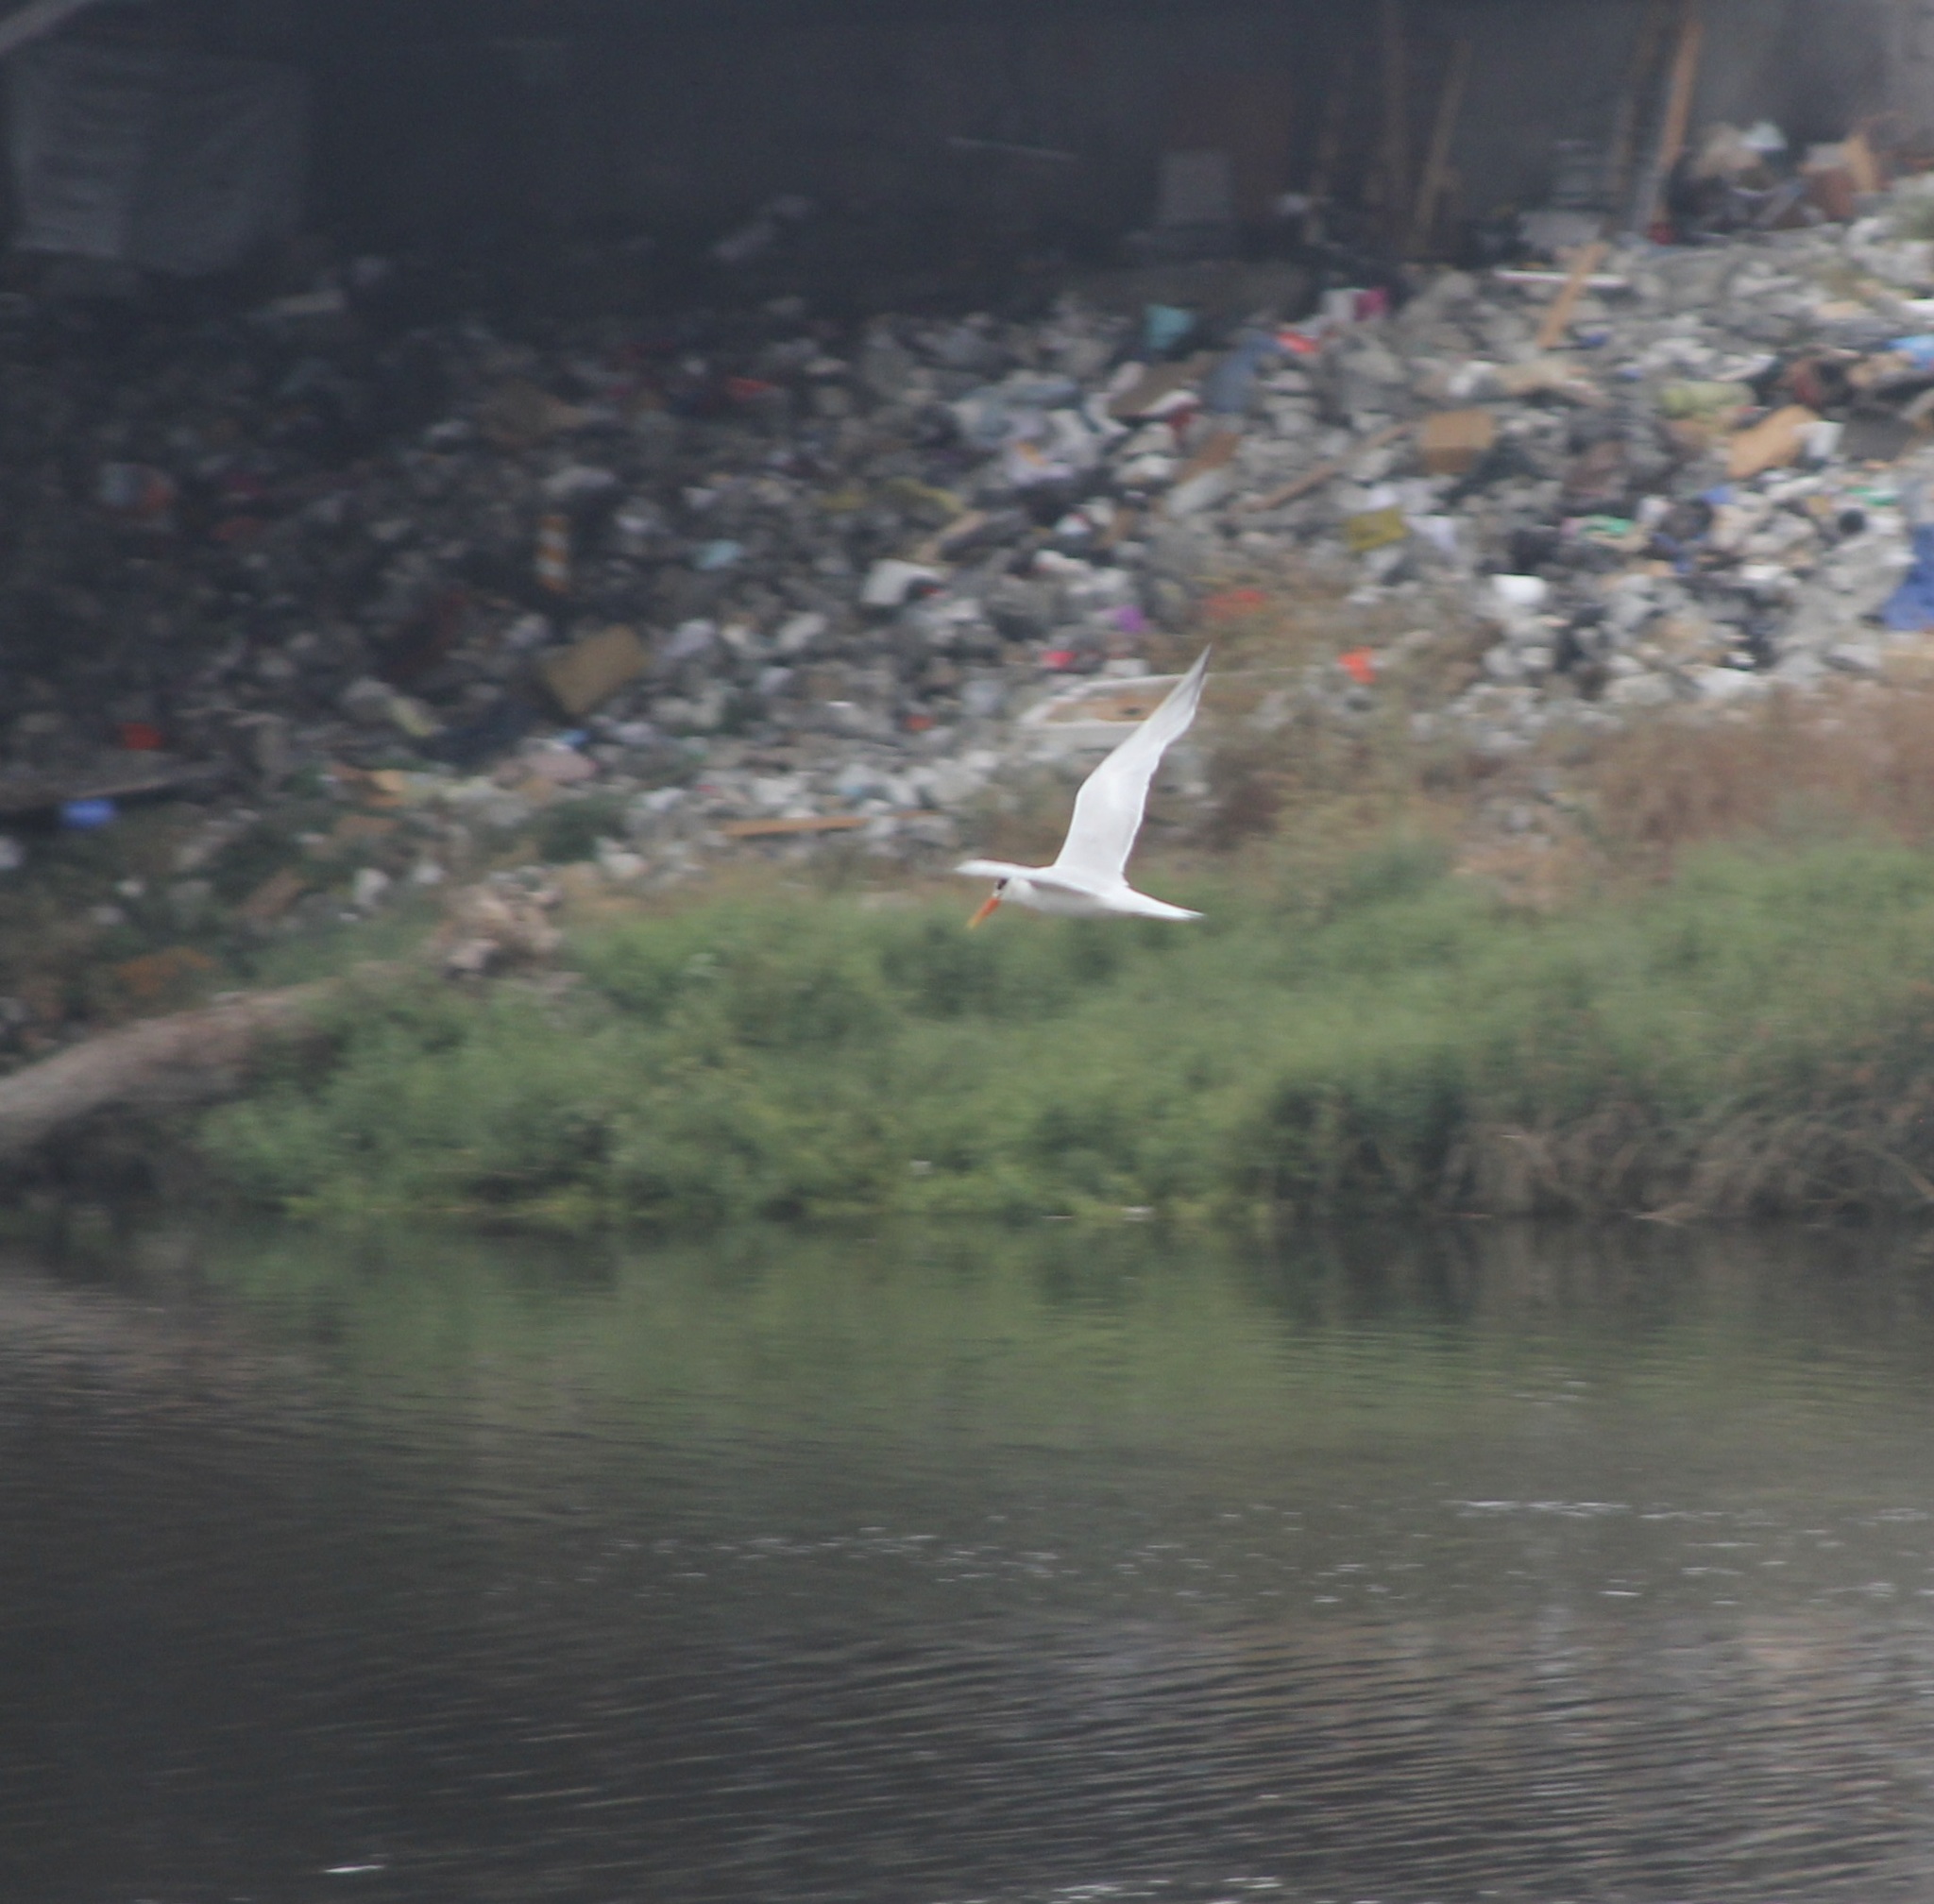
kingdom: Animalia
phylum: Chordata
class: Aves
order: Charadriiformes
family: Laridae
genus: Thalasseus
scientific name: Thalasseus elegans
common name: Elegant tern
